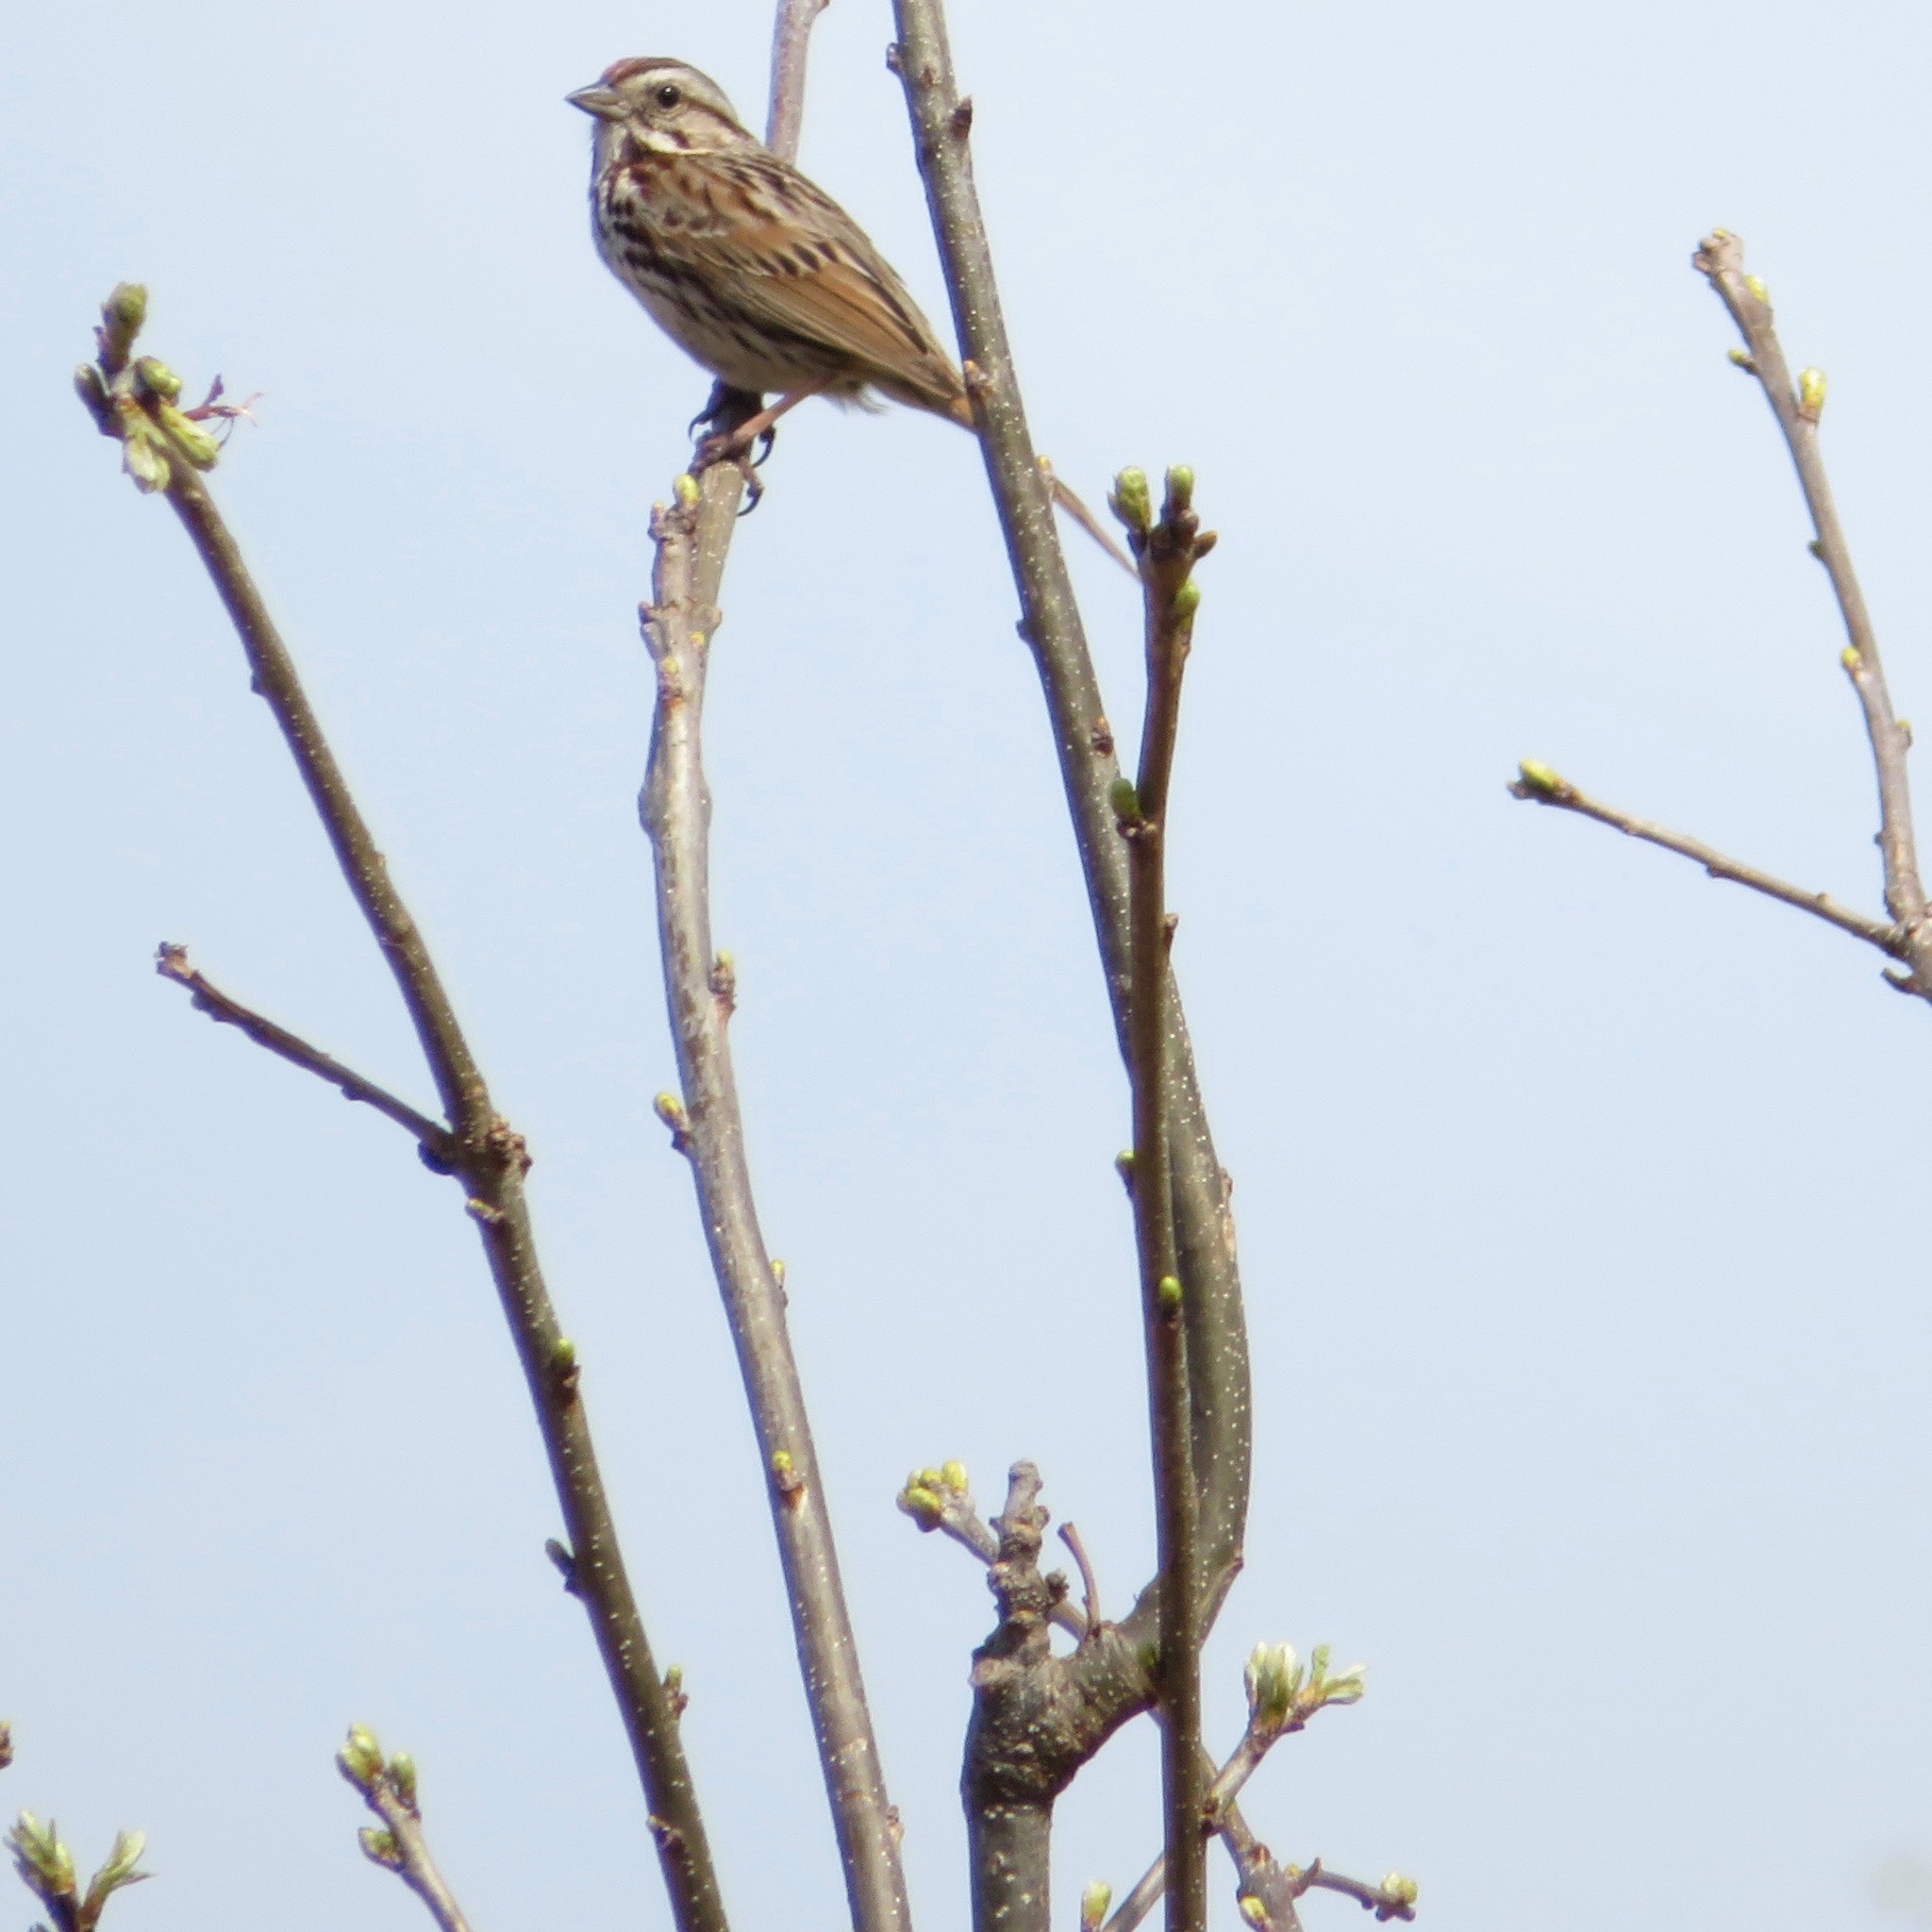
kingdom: Animalia
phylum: Chordata
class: Aves
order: Passeriformes
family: Passerellidae
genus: Melospiza
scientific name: Melospiza melodia
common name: Song sparrow
